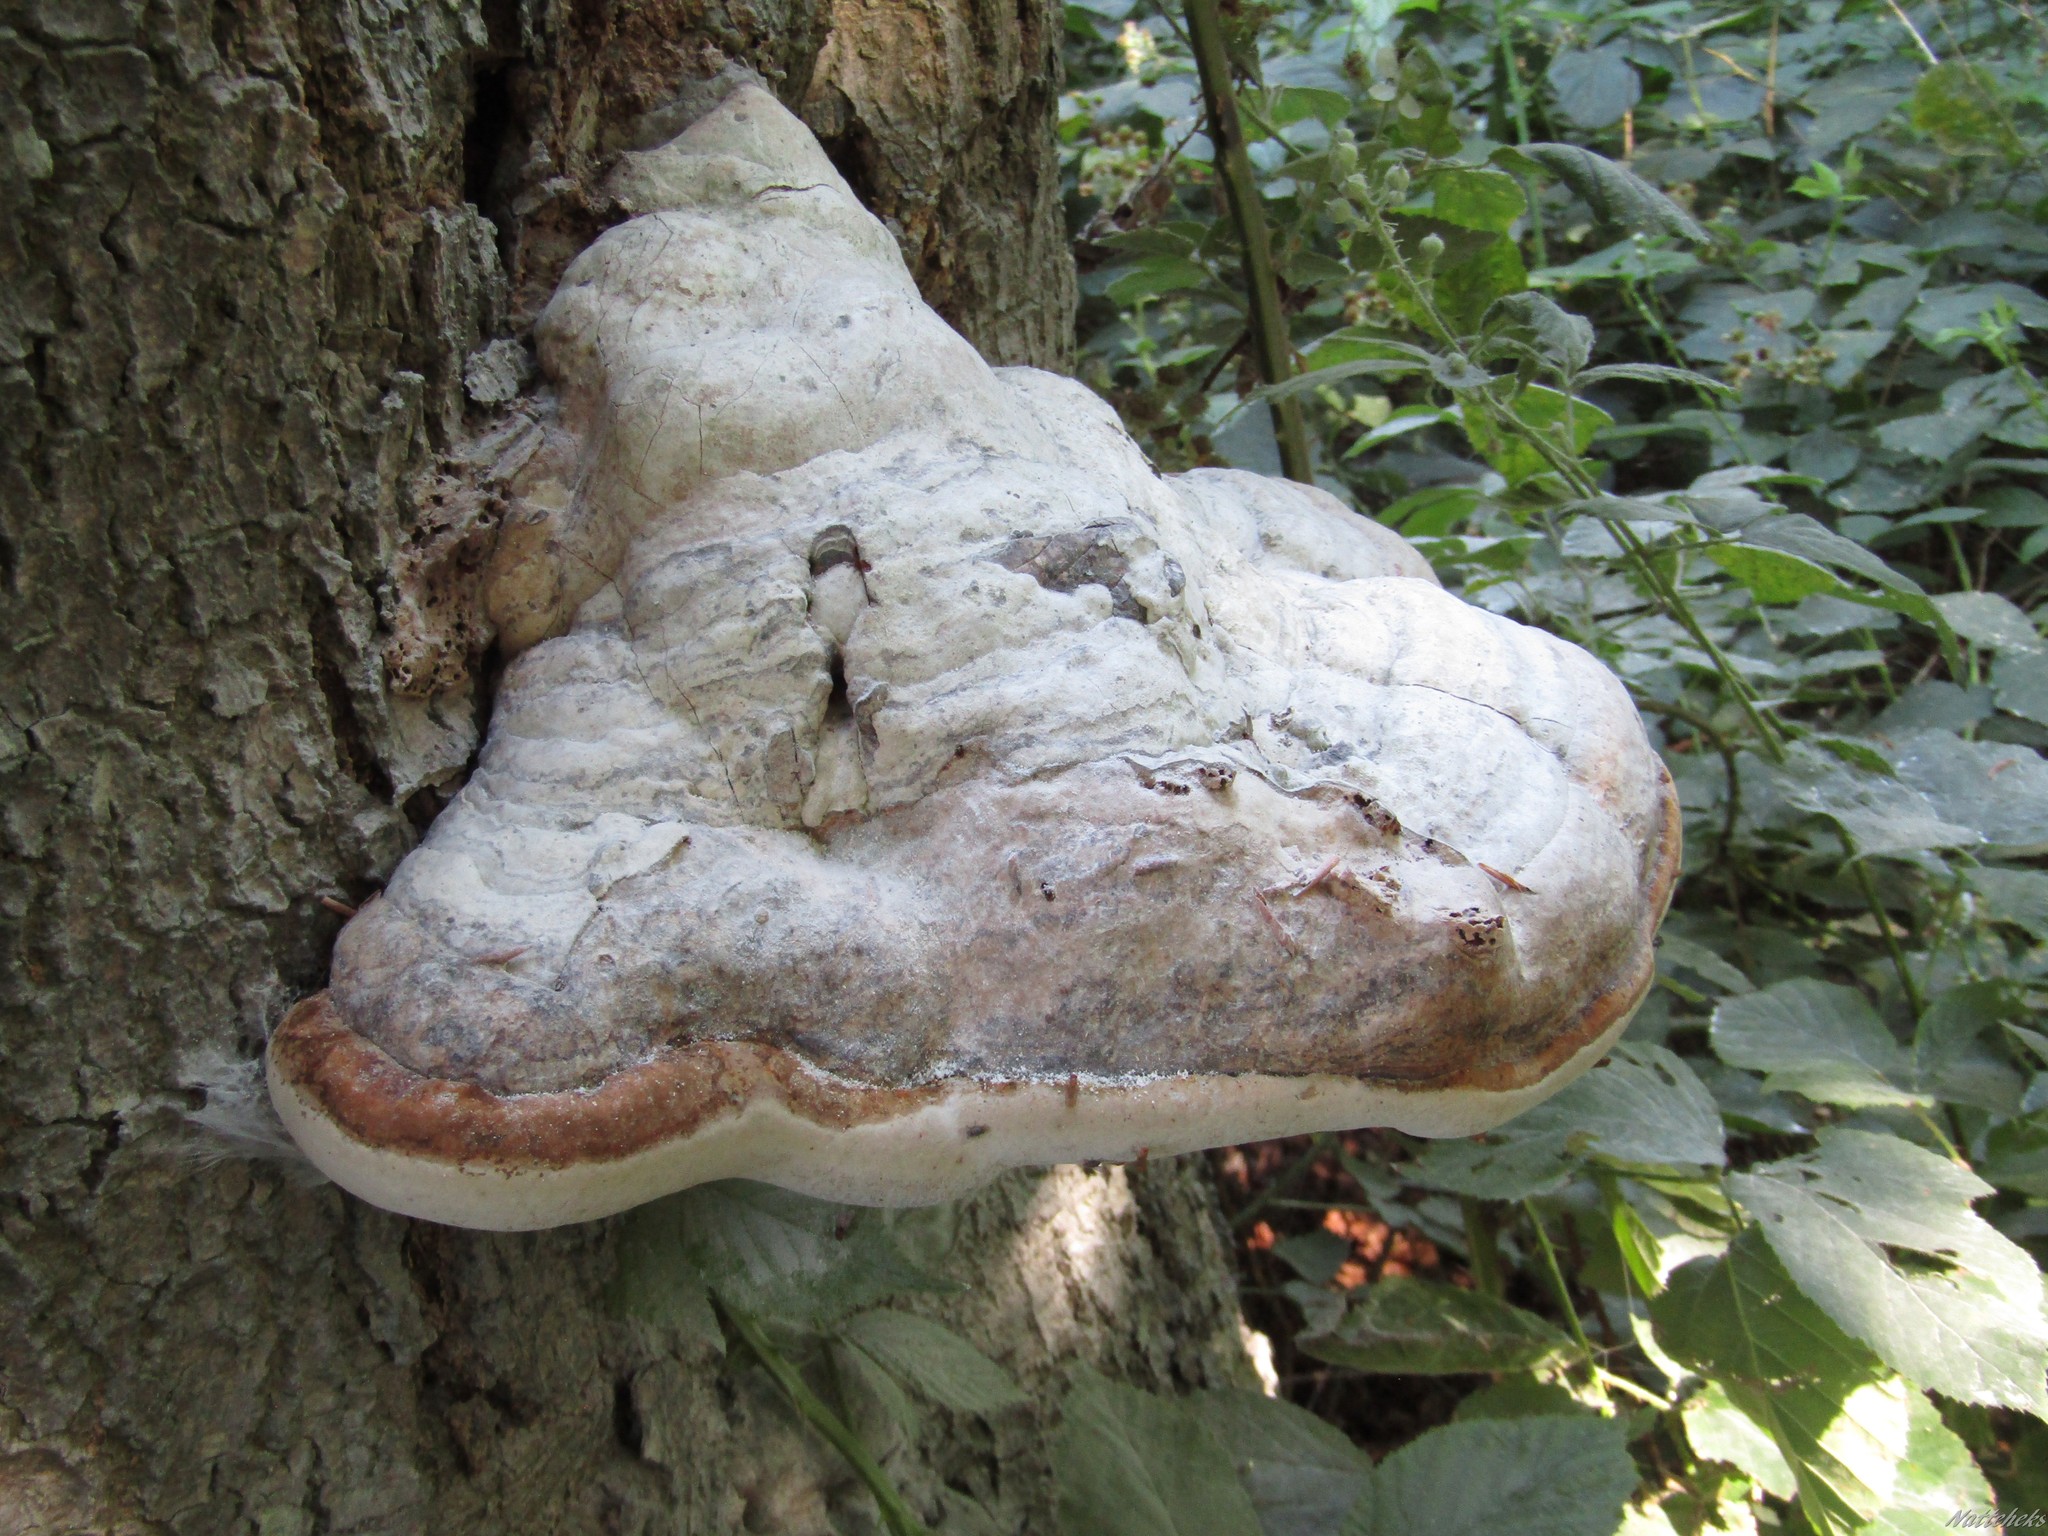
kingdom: Fungi
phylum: Basidiomycota
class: Agaricomycetes
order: Polyporales
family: Polyporaceae
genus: Fomes
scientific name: Fomes fomentarius
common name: Hoof fungus
